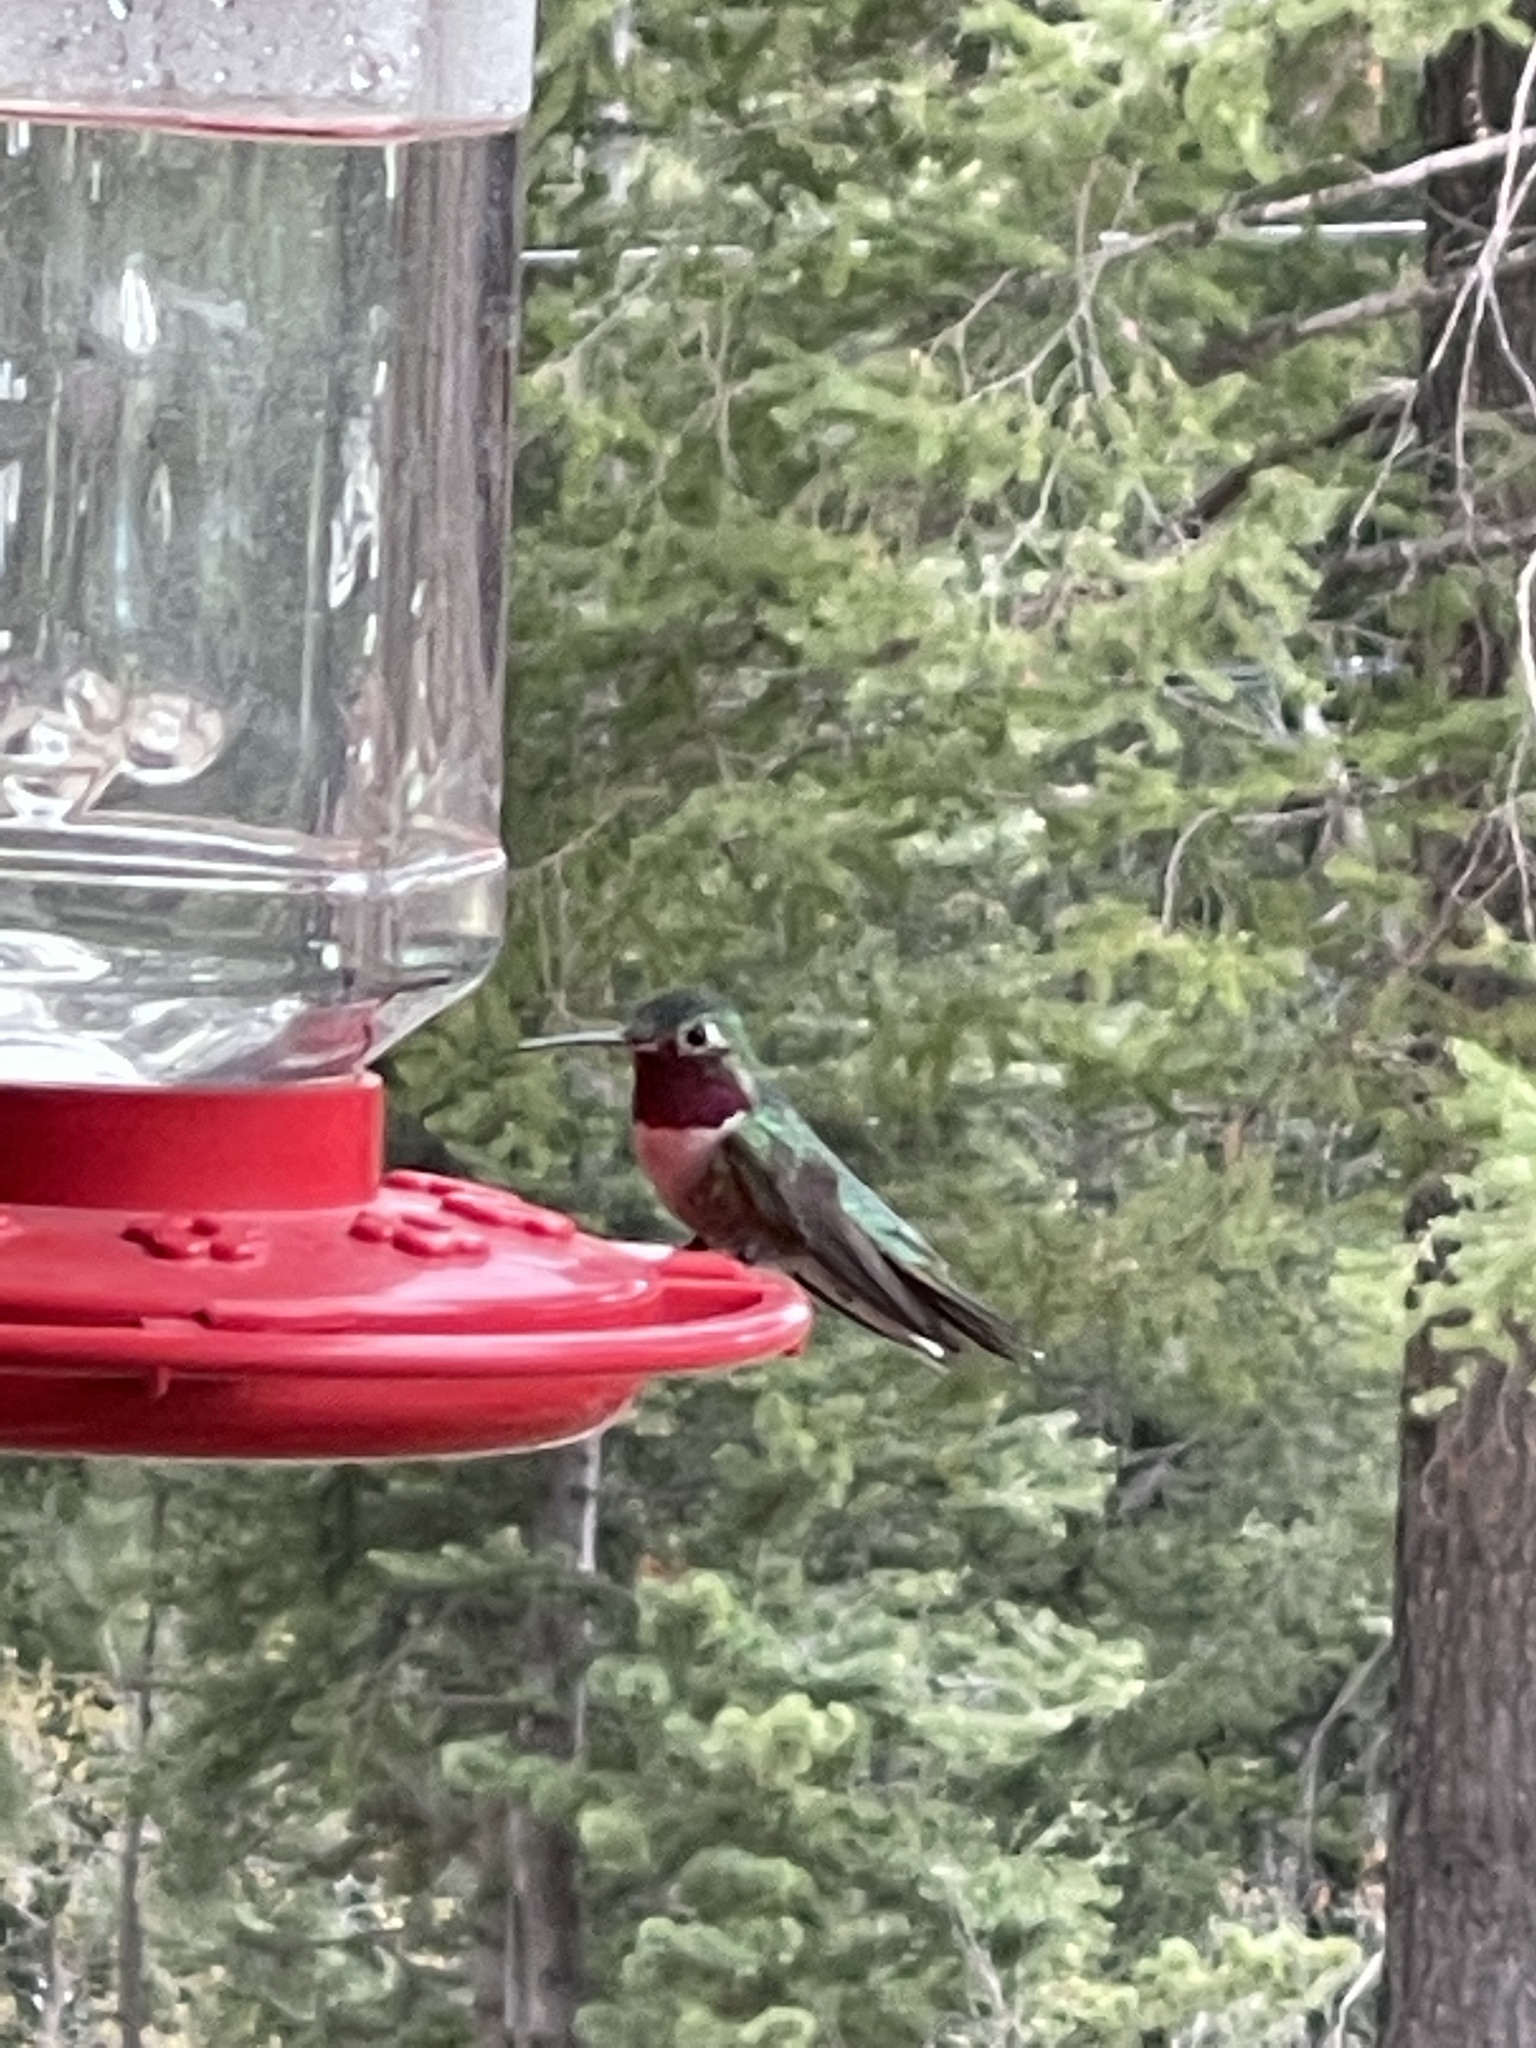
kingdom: Animalia
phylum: Chordata
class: Aves
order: Apodiformes
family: Trochilidae
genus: Selasphorus
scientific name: Selasphorus platycercus
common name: Broad-tailed hummingbird
